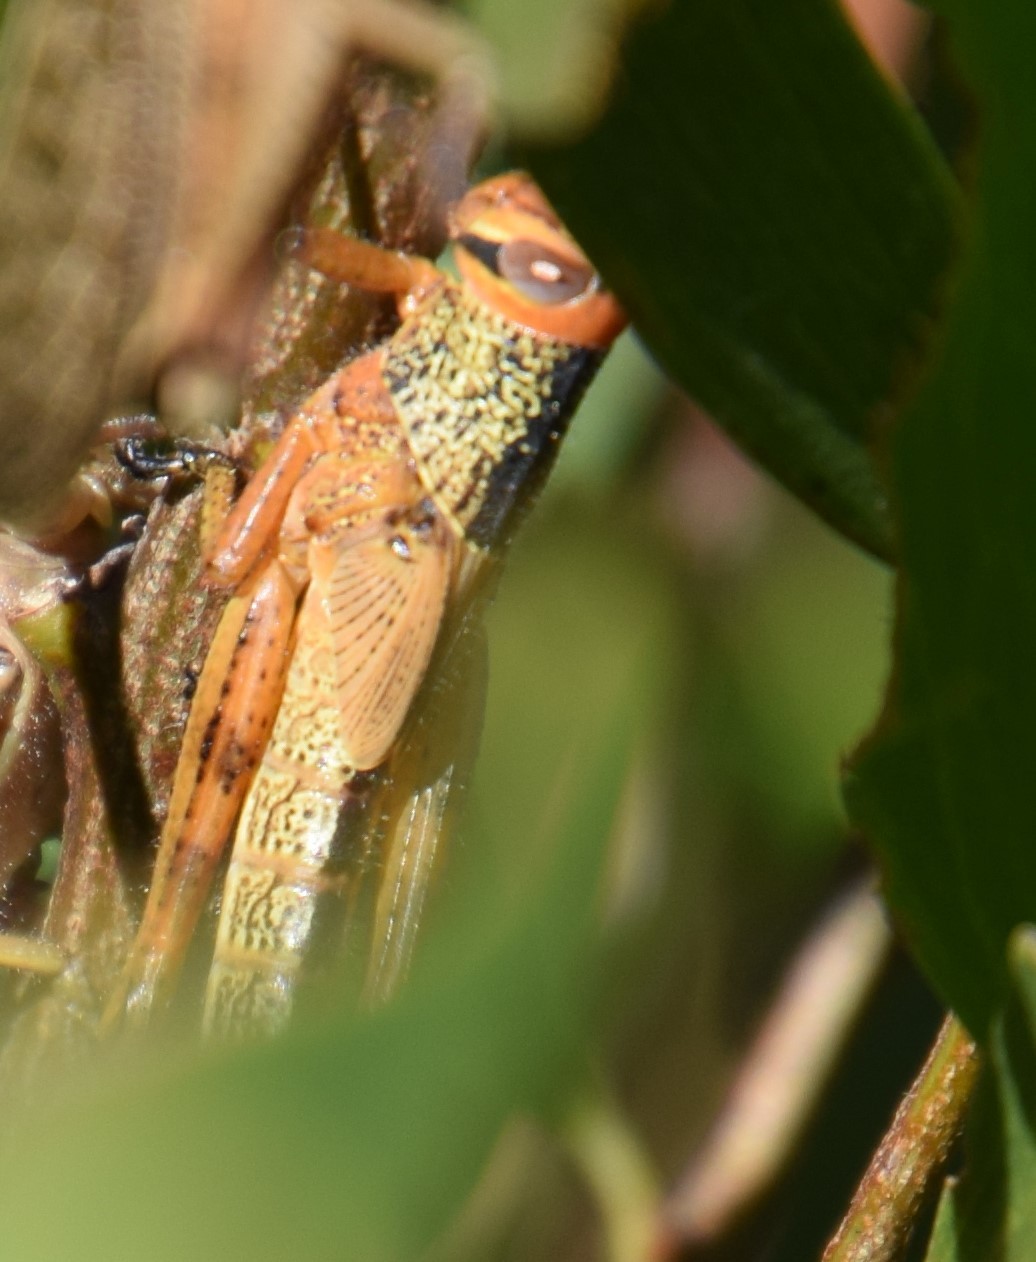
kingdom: Animalia
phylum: Arthropoda
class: Insecta
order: Orthoptera
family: Acrididae
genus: Valanga
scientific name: Valanga irregularis
